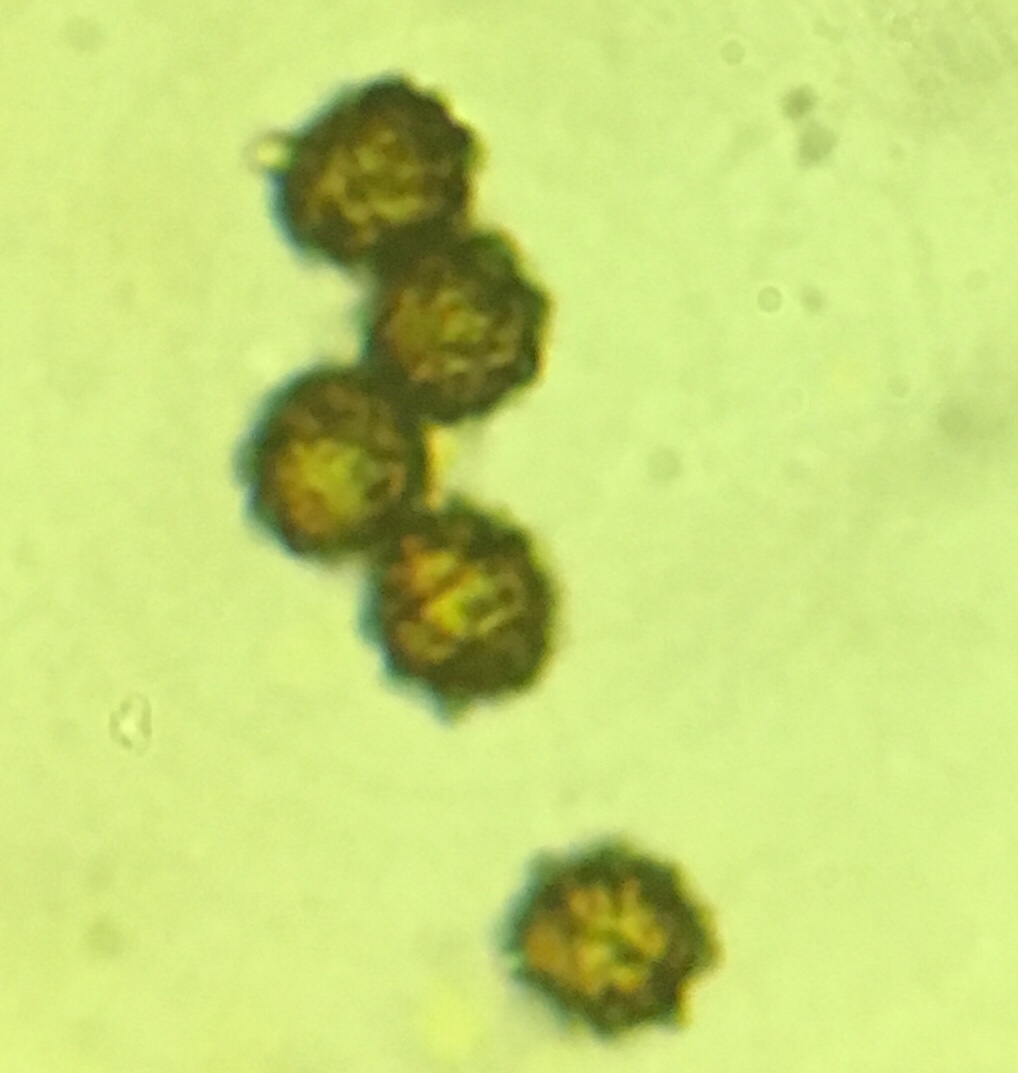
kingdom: Fungi
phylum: Basidiomycota
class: Agaricomycetes
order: Russulales
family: Russulaceae
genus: Russula
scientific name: Russula puellaris
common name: Yellowing brittlegill
